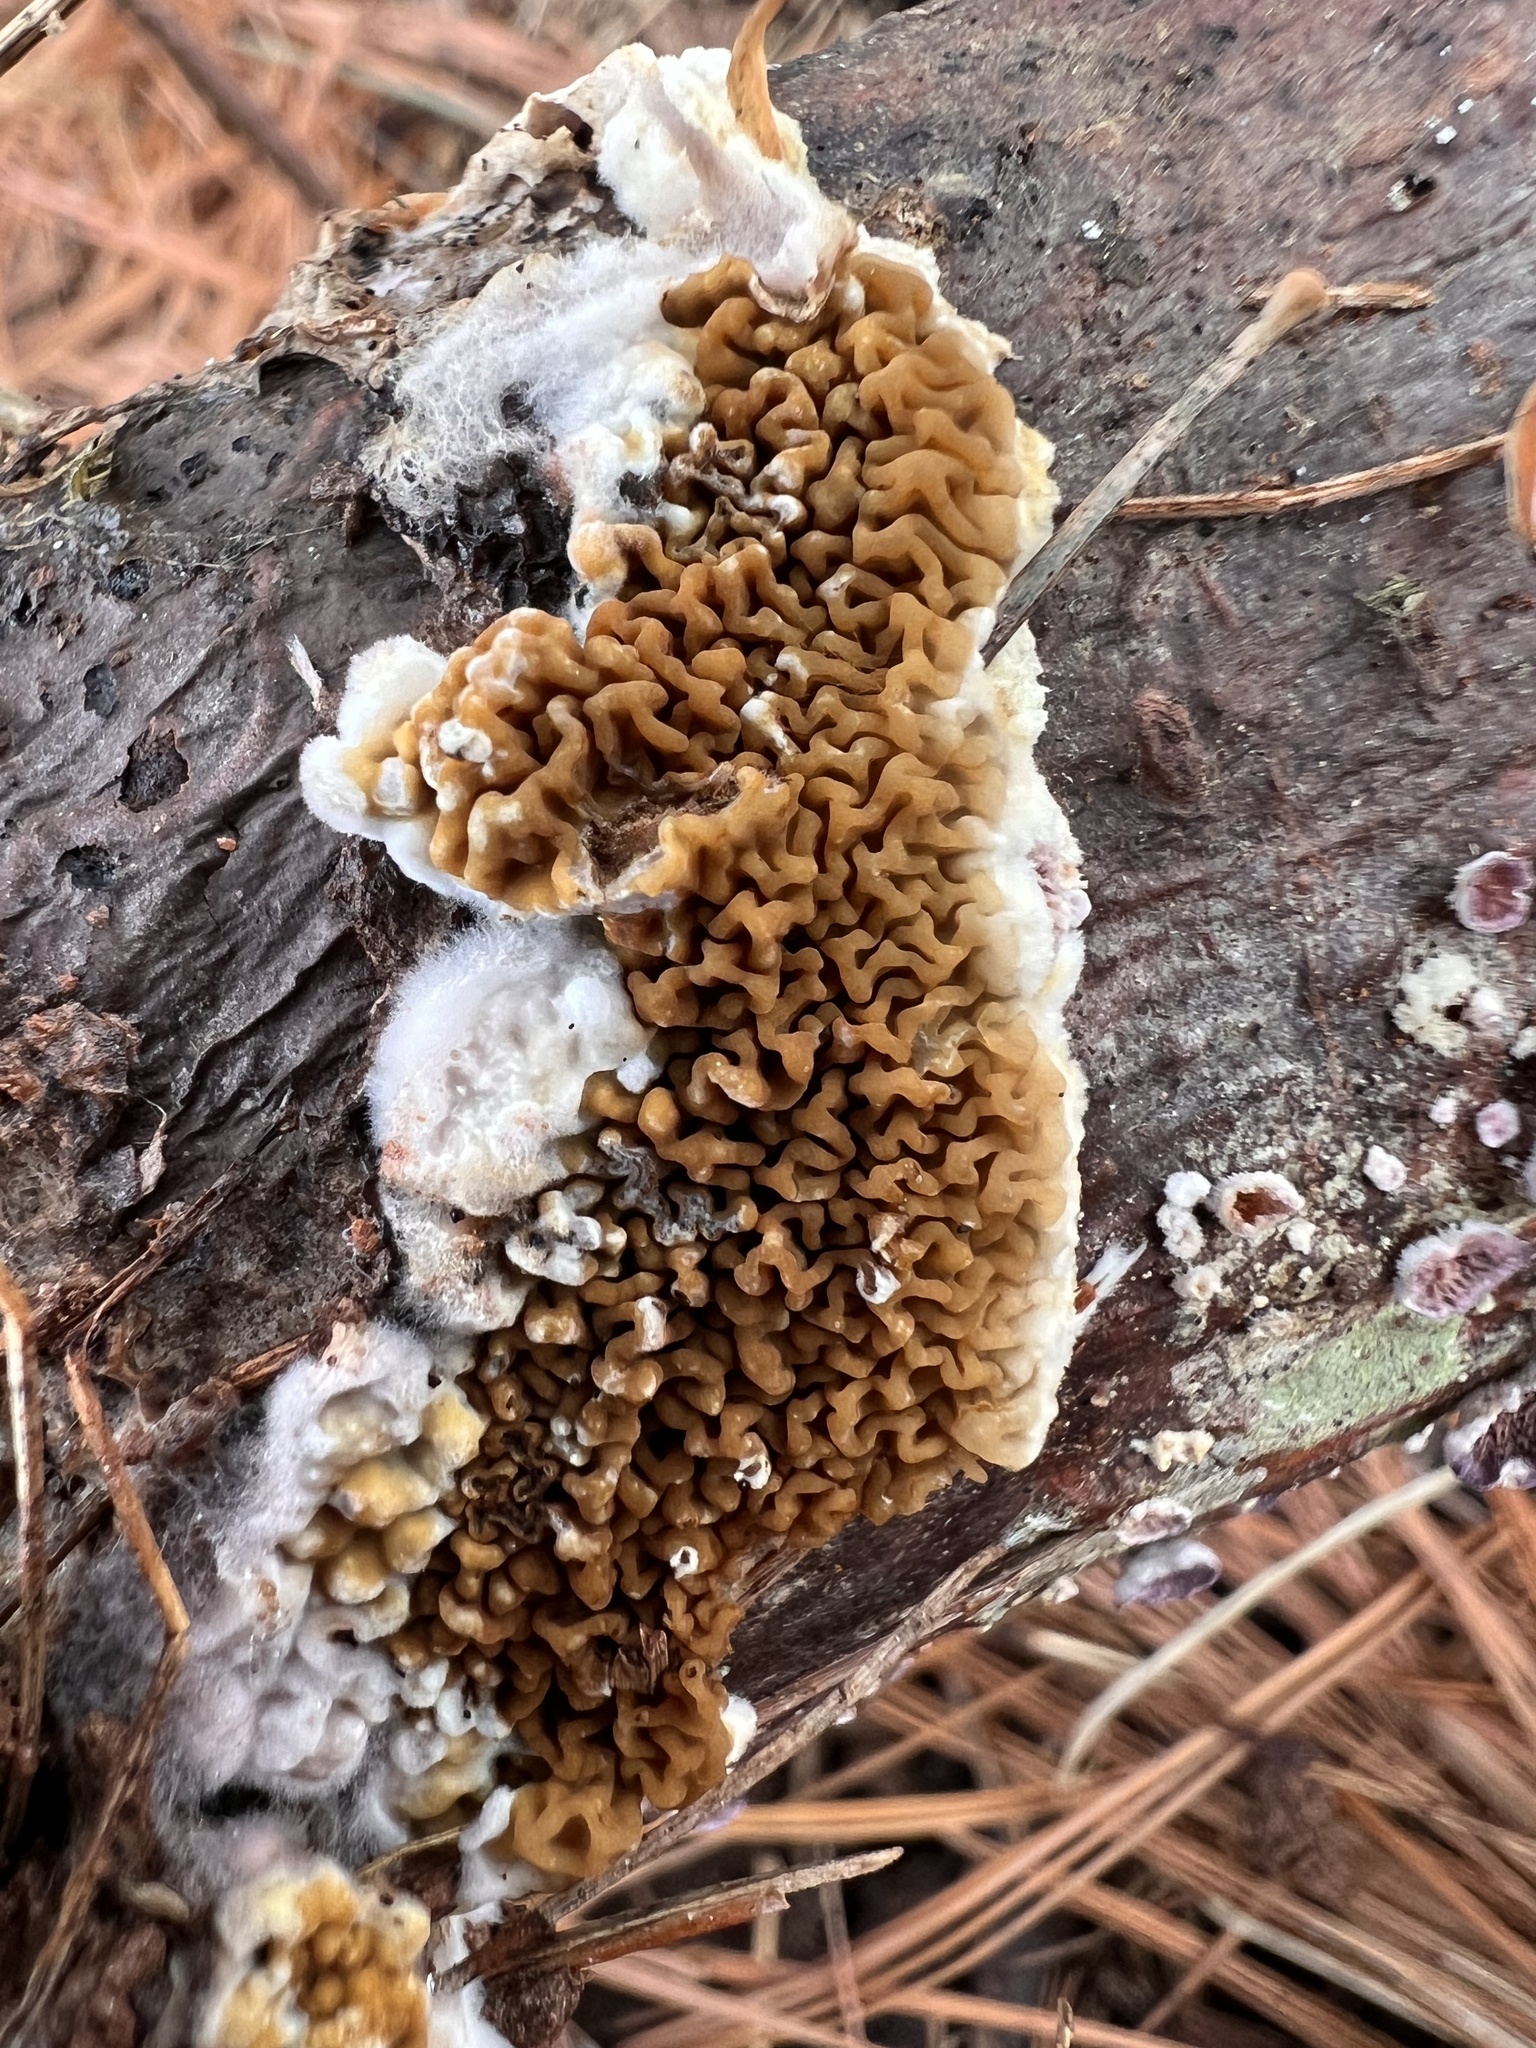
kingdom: Fungi
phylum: Basidiomycota
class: Agaricomycetes
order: Boletales
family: Serpulaceae
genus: Serpula
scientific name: Serpula himantioides
